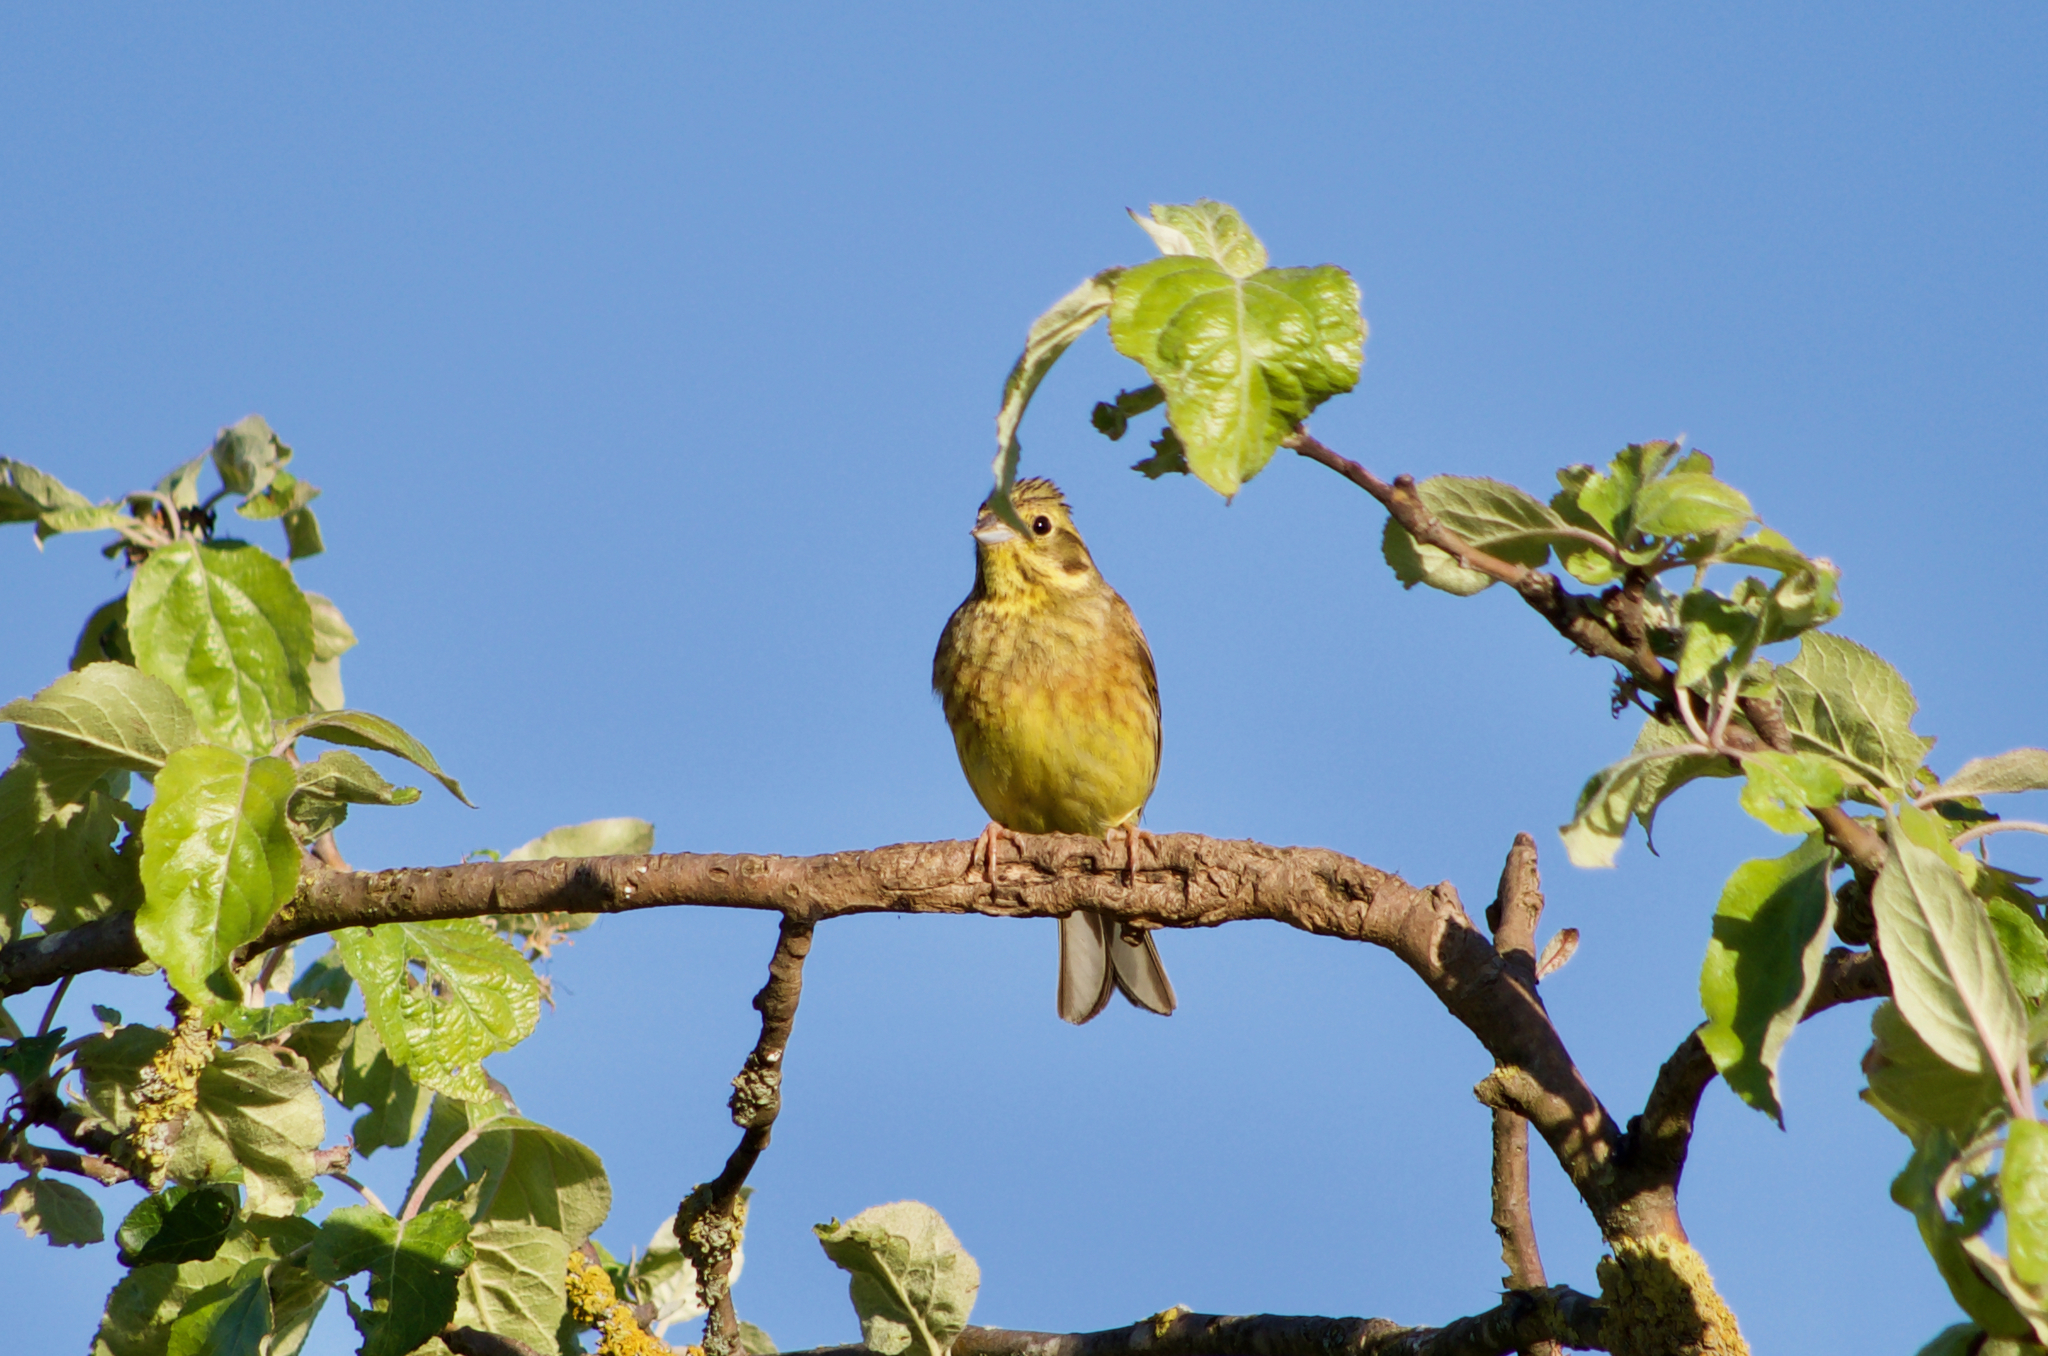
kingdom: Animalia
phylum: Chordata
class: Aves
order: Passeriformes
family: Emberizidae
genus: Emberiza
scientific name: Emberiza citrinella
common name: Yellowhammer
